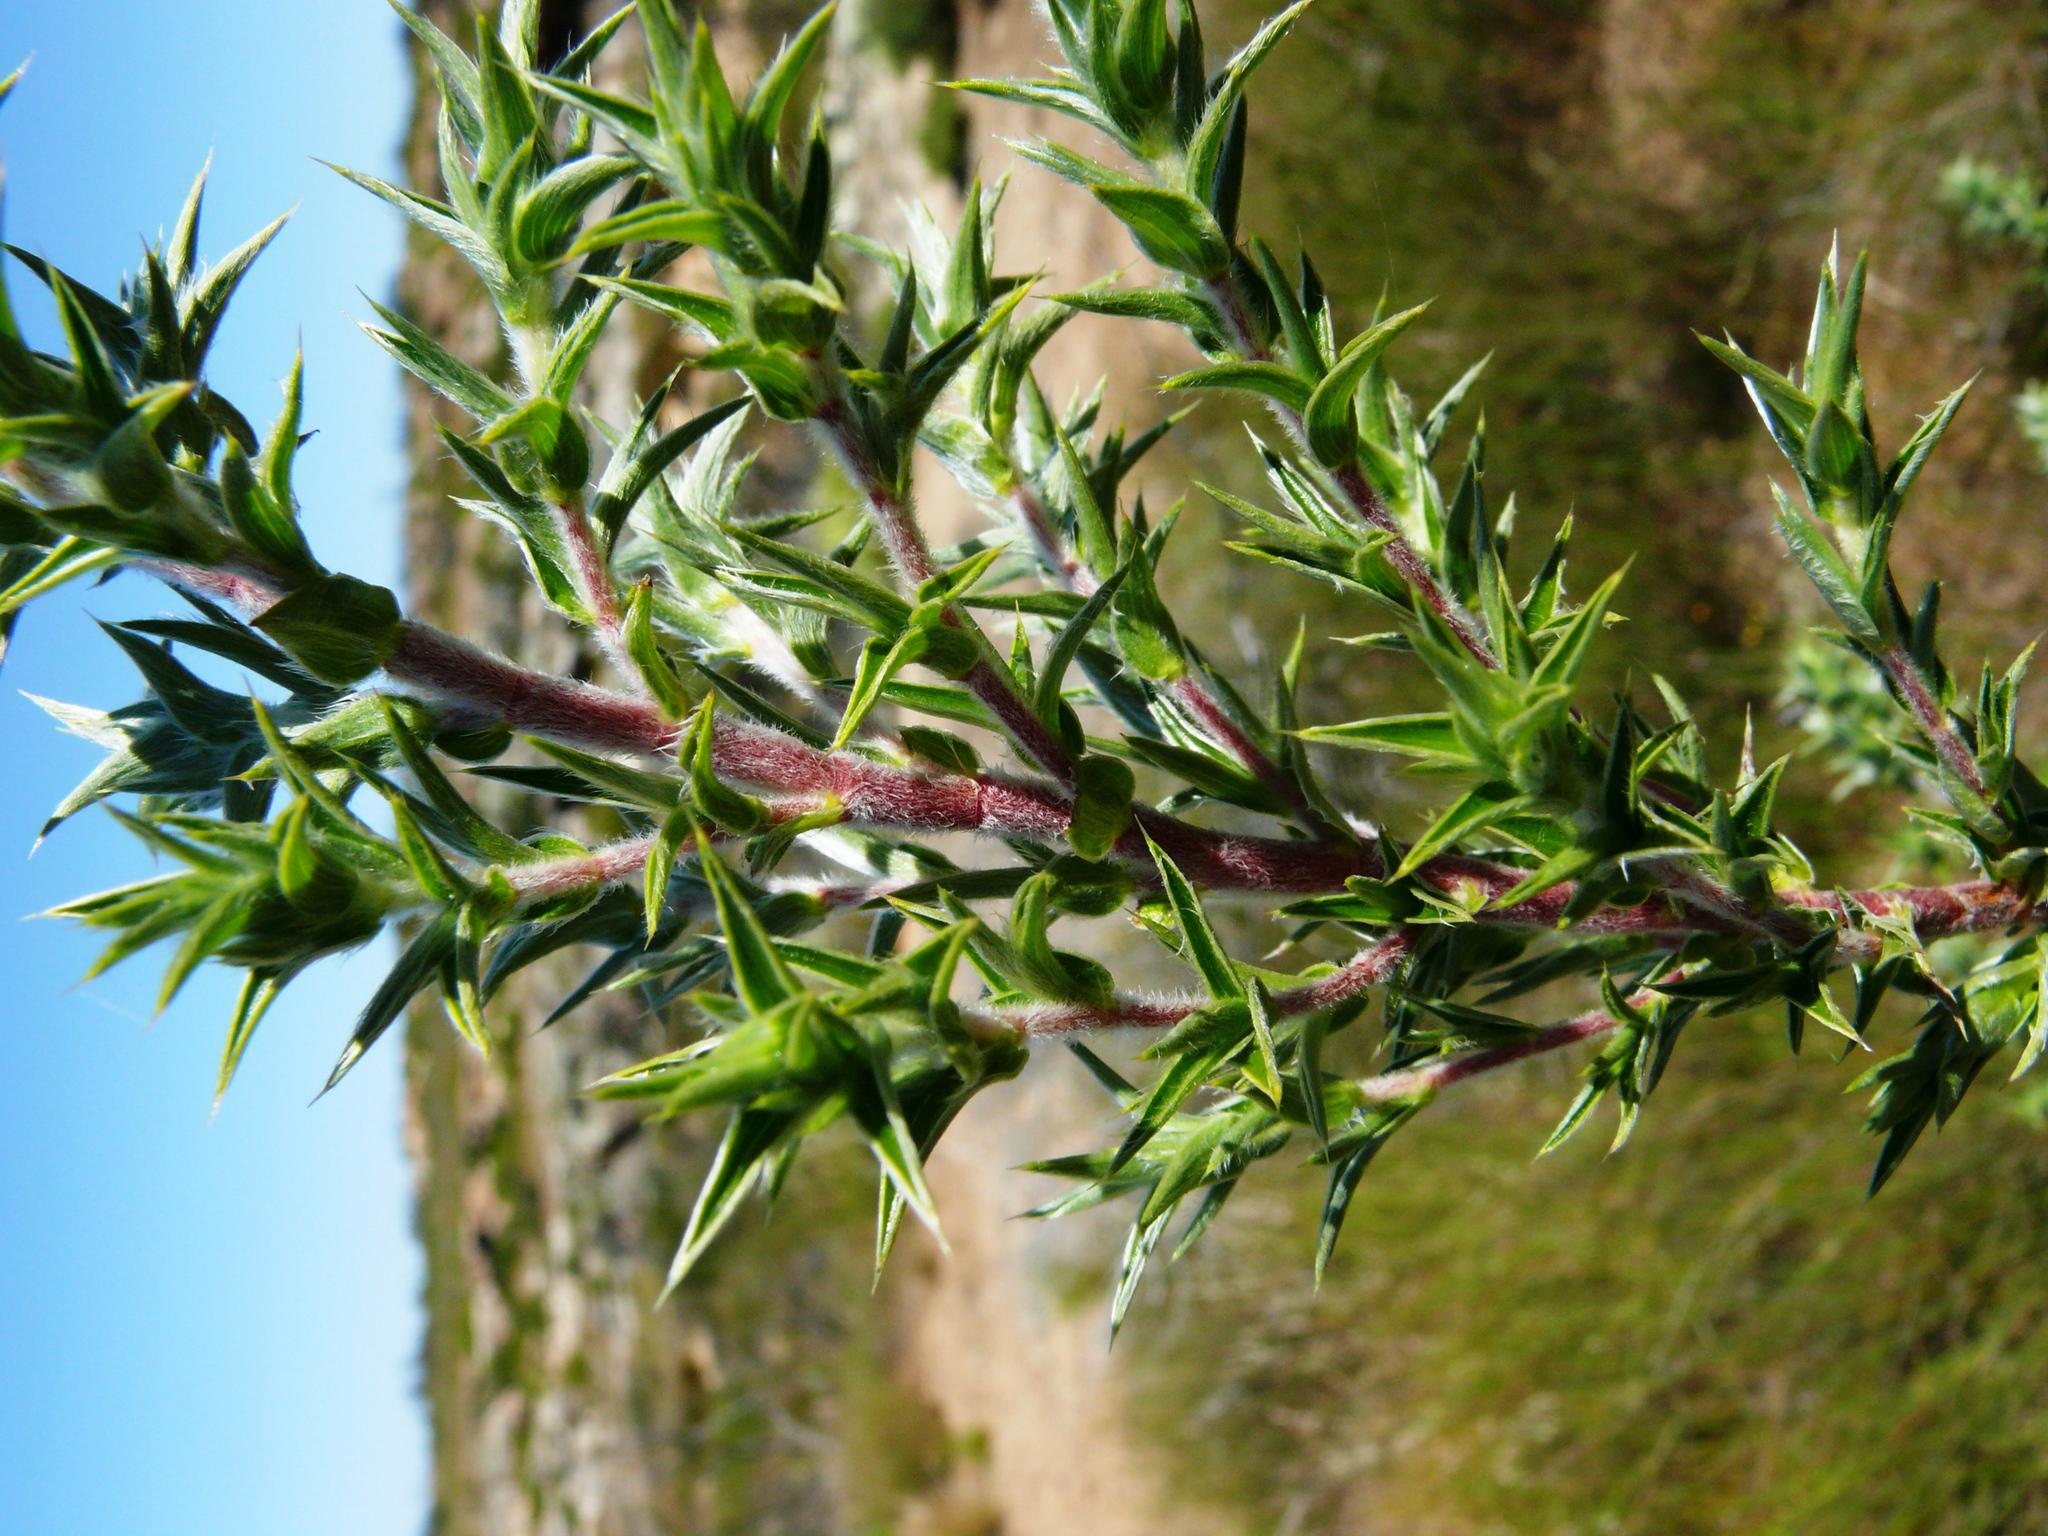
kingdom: Plantae
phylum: Tracheophyta
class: Magnoliopsida
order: Rosales
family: Rosaceae
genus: Cliffortia
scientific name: Cliffortia ruscifolia
